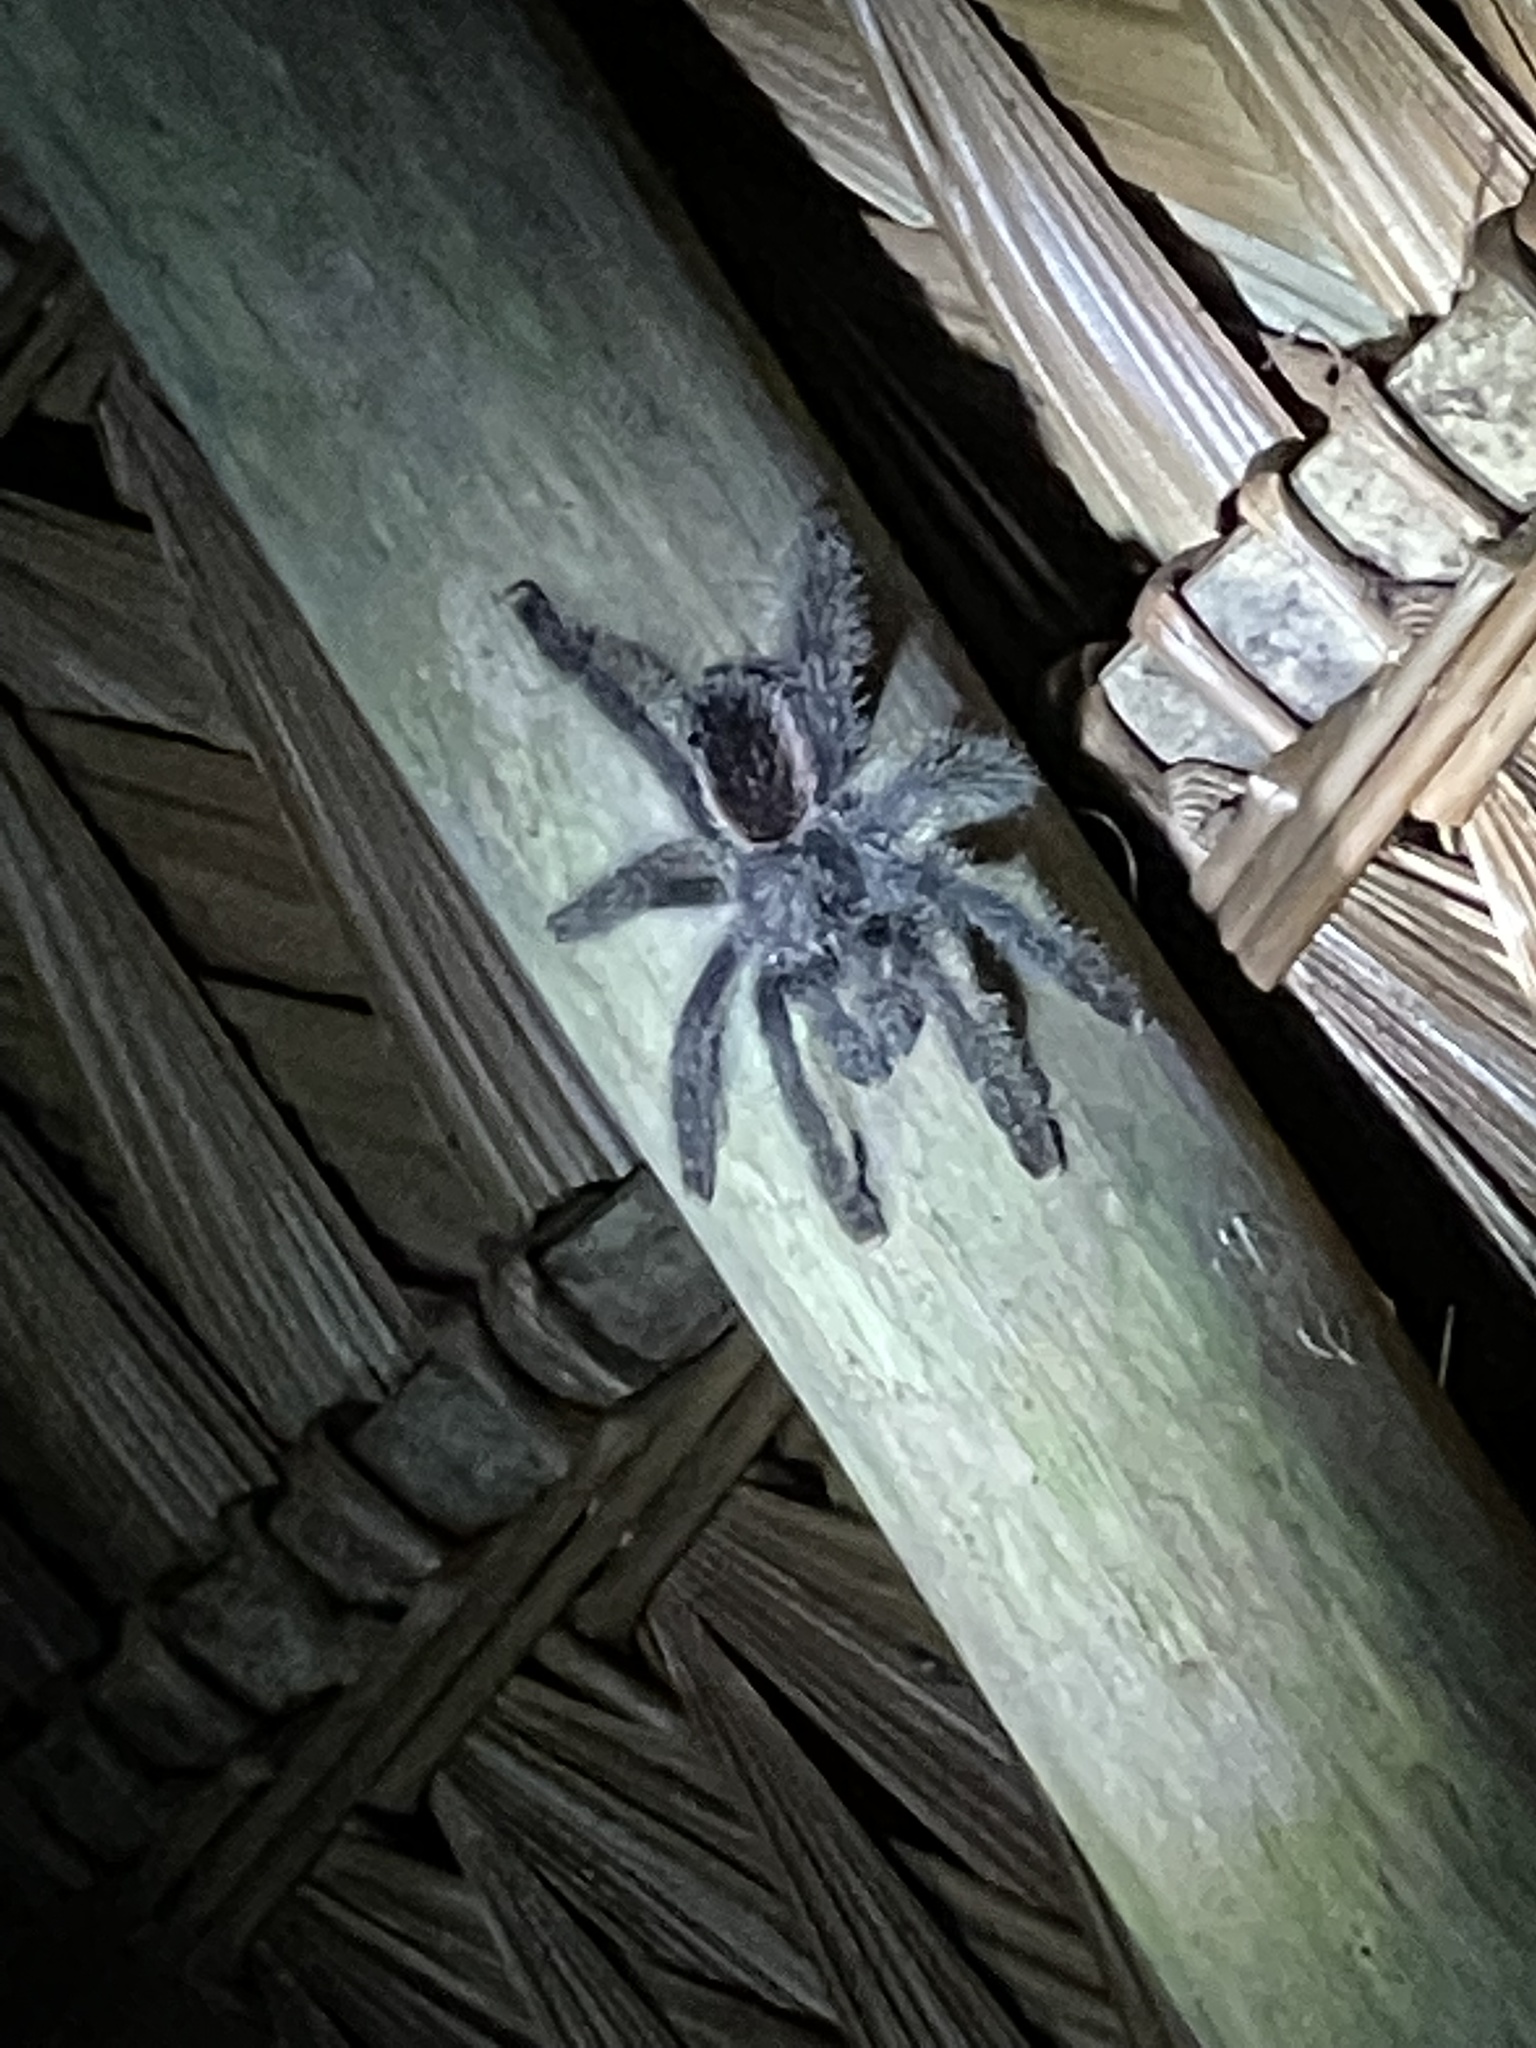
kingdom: Animalia
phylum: Arthropoda
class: Arachnida
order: Araneae
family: Theraphosidae
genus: Avicularia
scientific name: Avicularia juruensis
